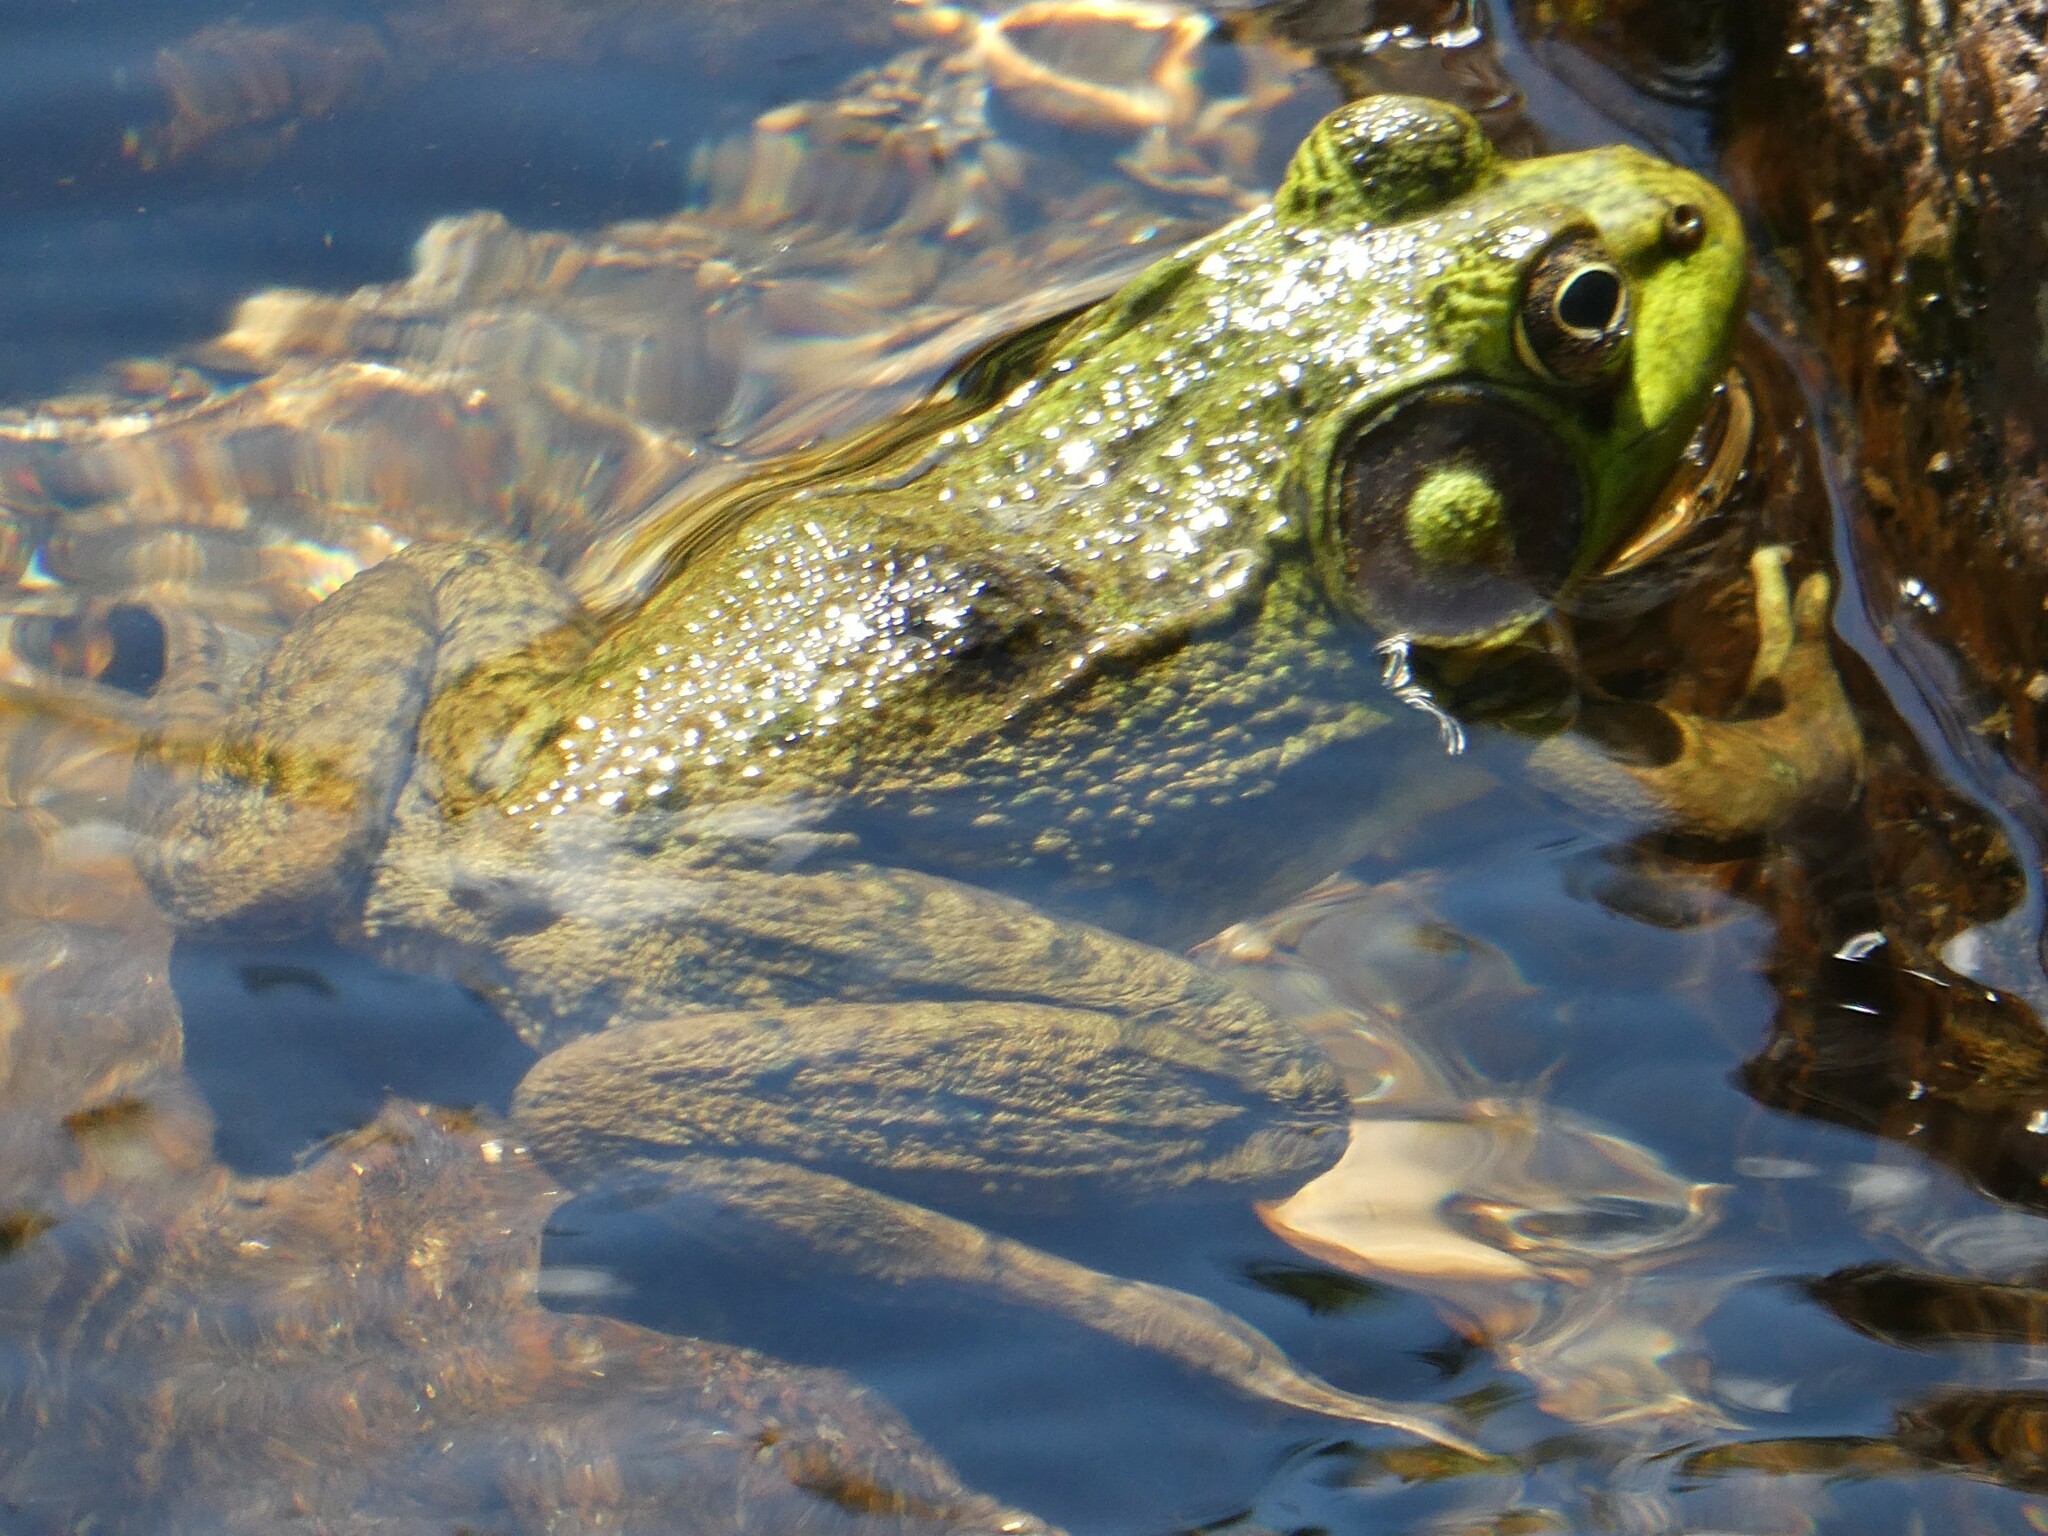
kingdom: Animalia
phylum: Chordata
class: Amphibia
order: Anura
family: Ranidae
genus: Lithobates
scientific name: Lithobates clamitans
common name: Green frog
